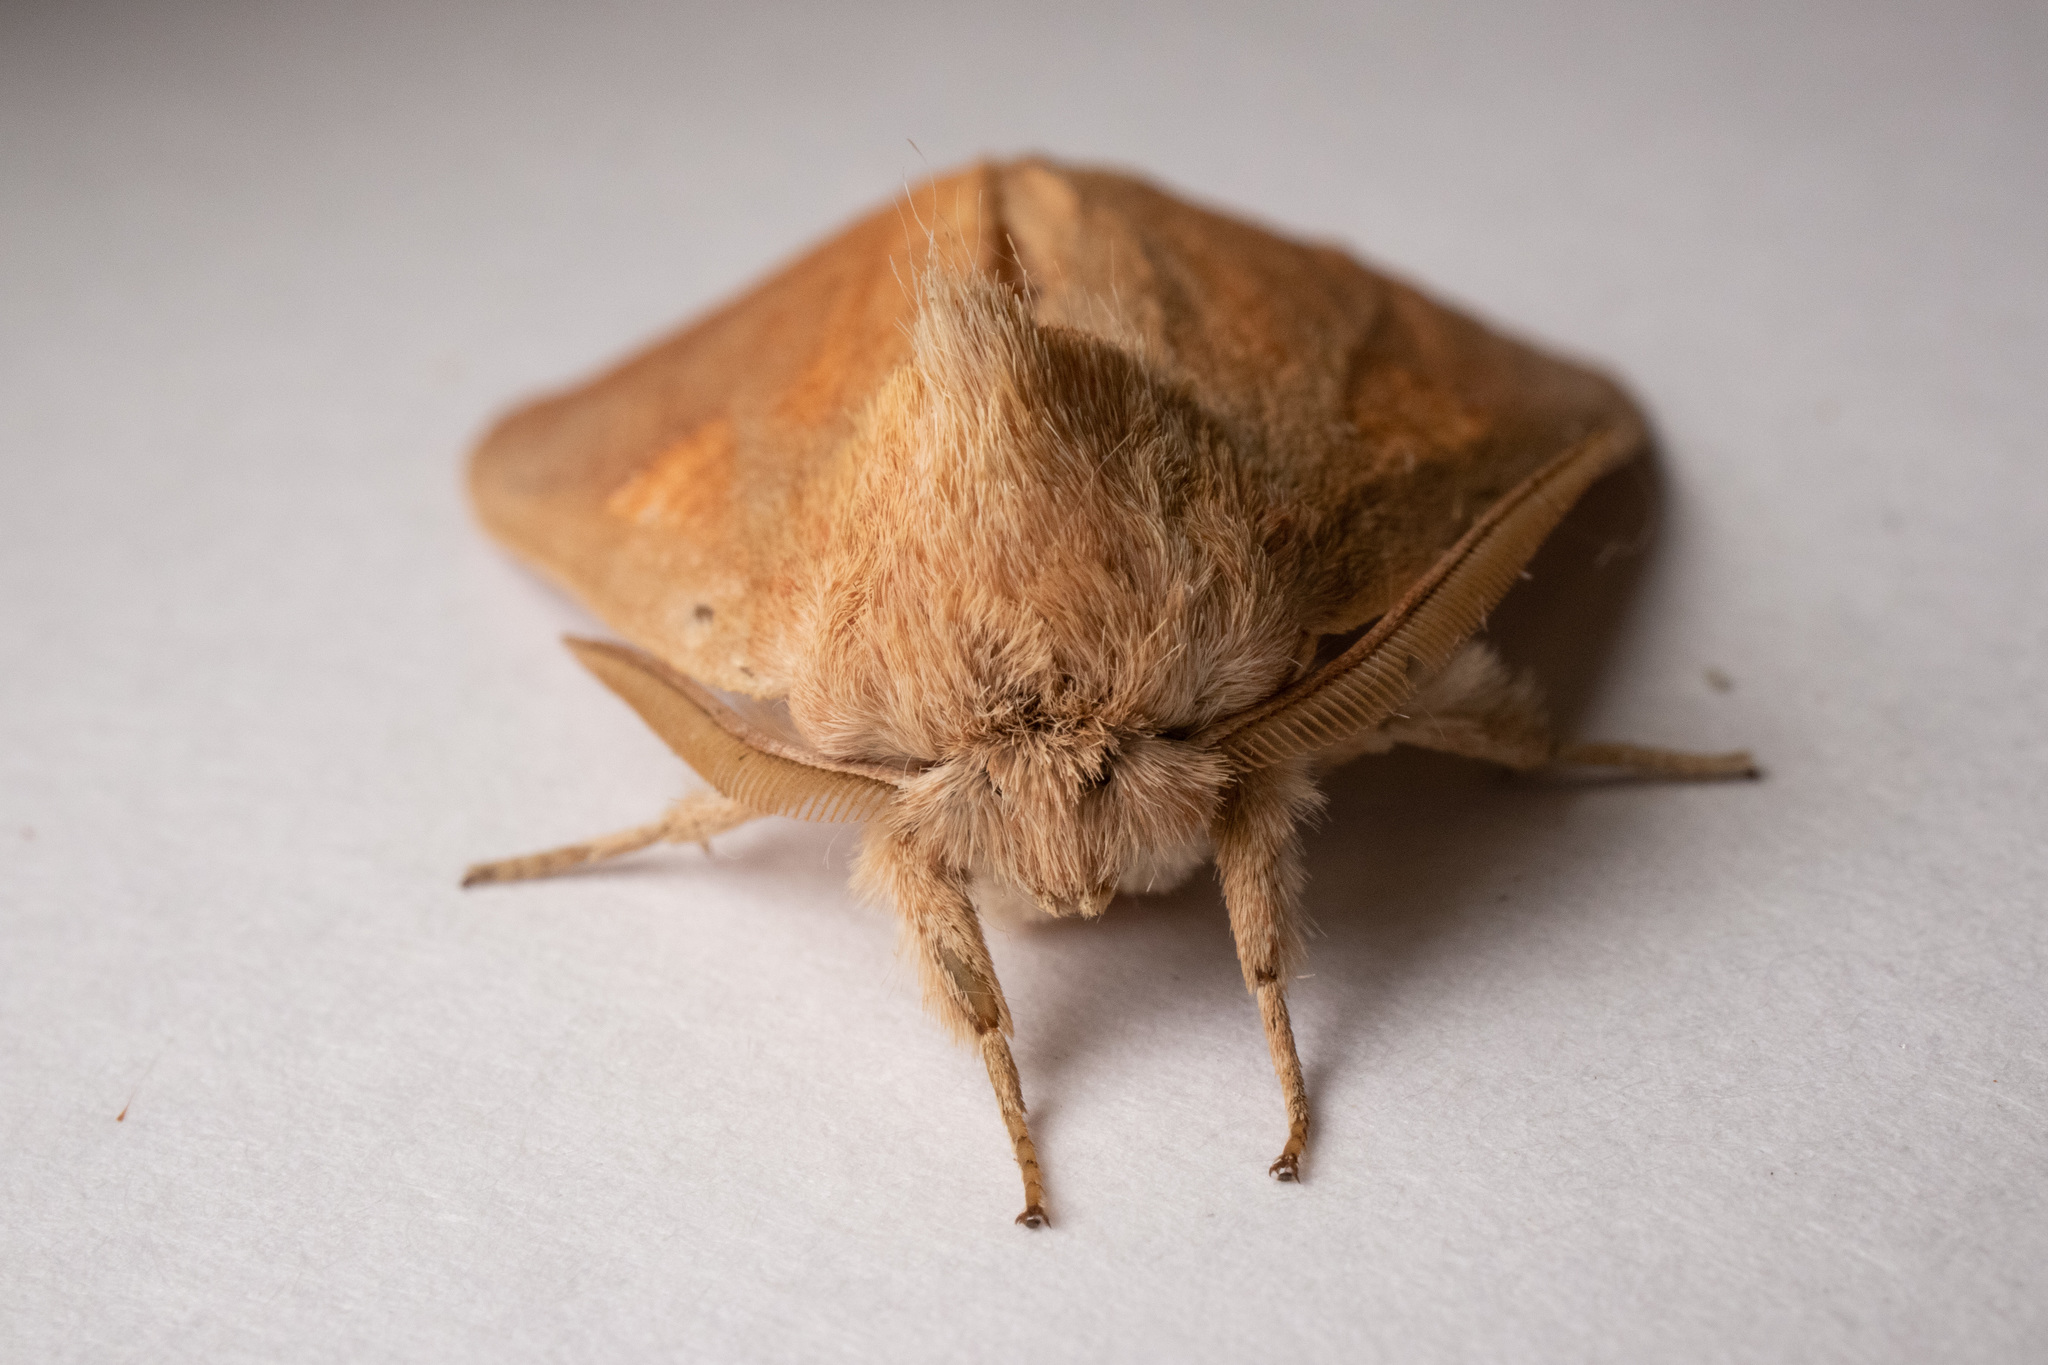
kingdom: Animalia
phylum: Arthropoda
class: Insecta
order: Lepidoptera
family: Notodontidae
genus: Nadata
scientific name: Nadata gibbosa
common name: White-dotted prominent
